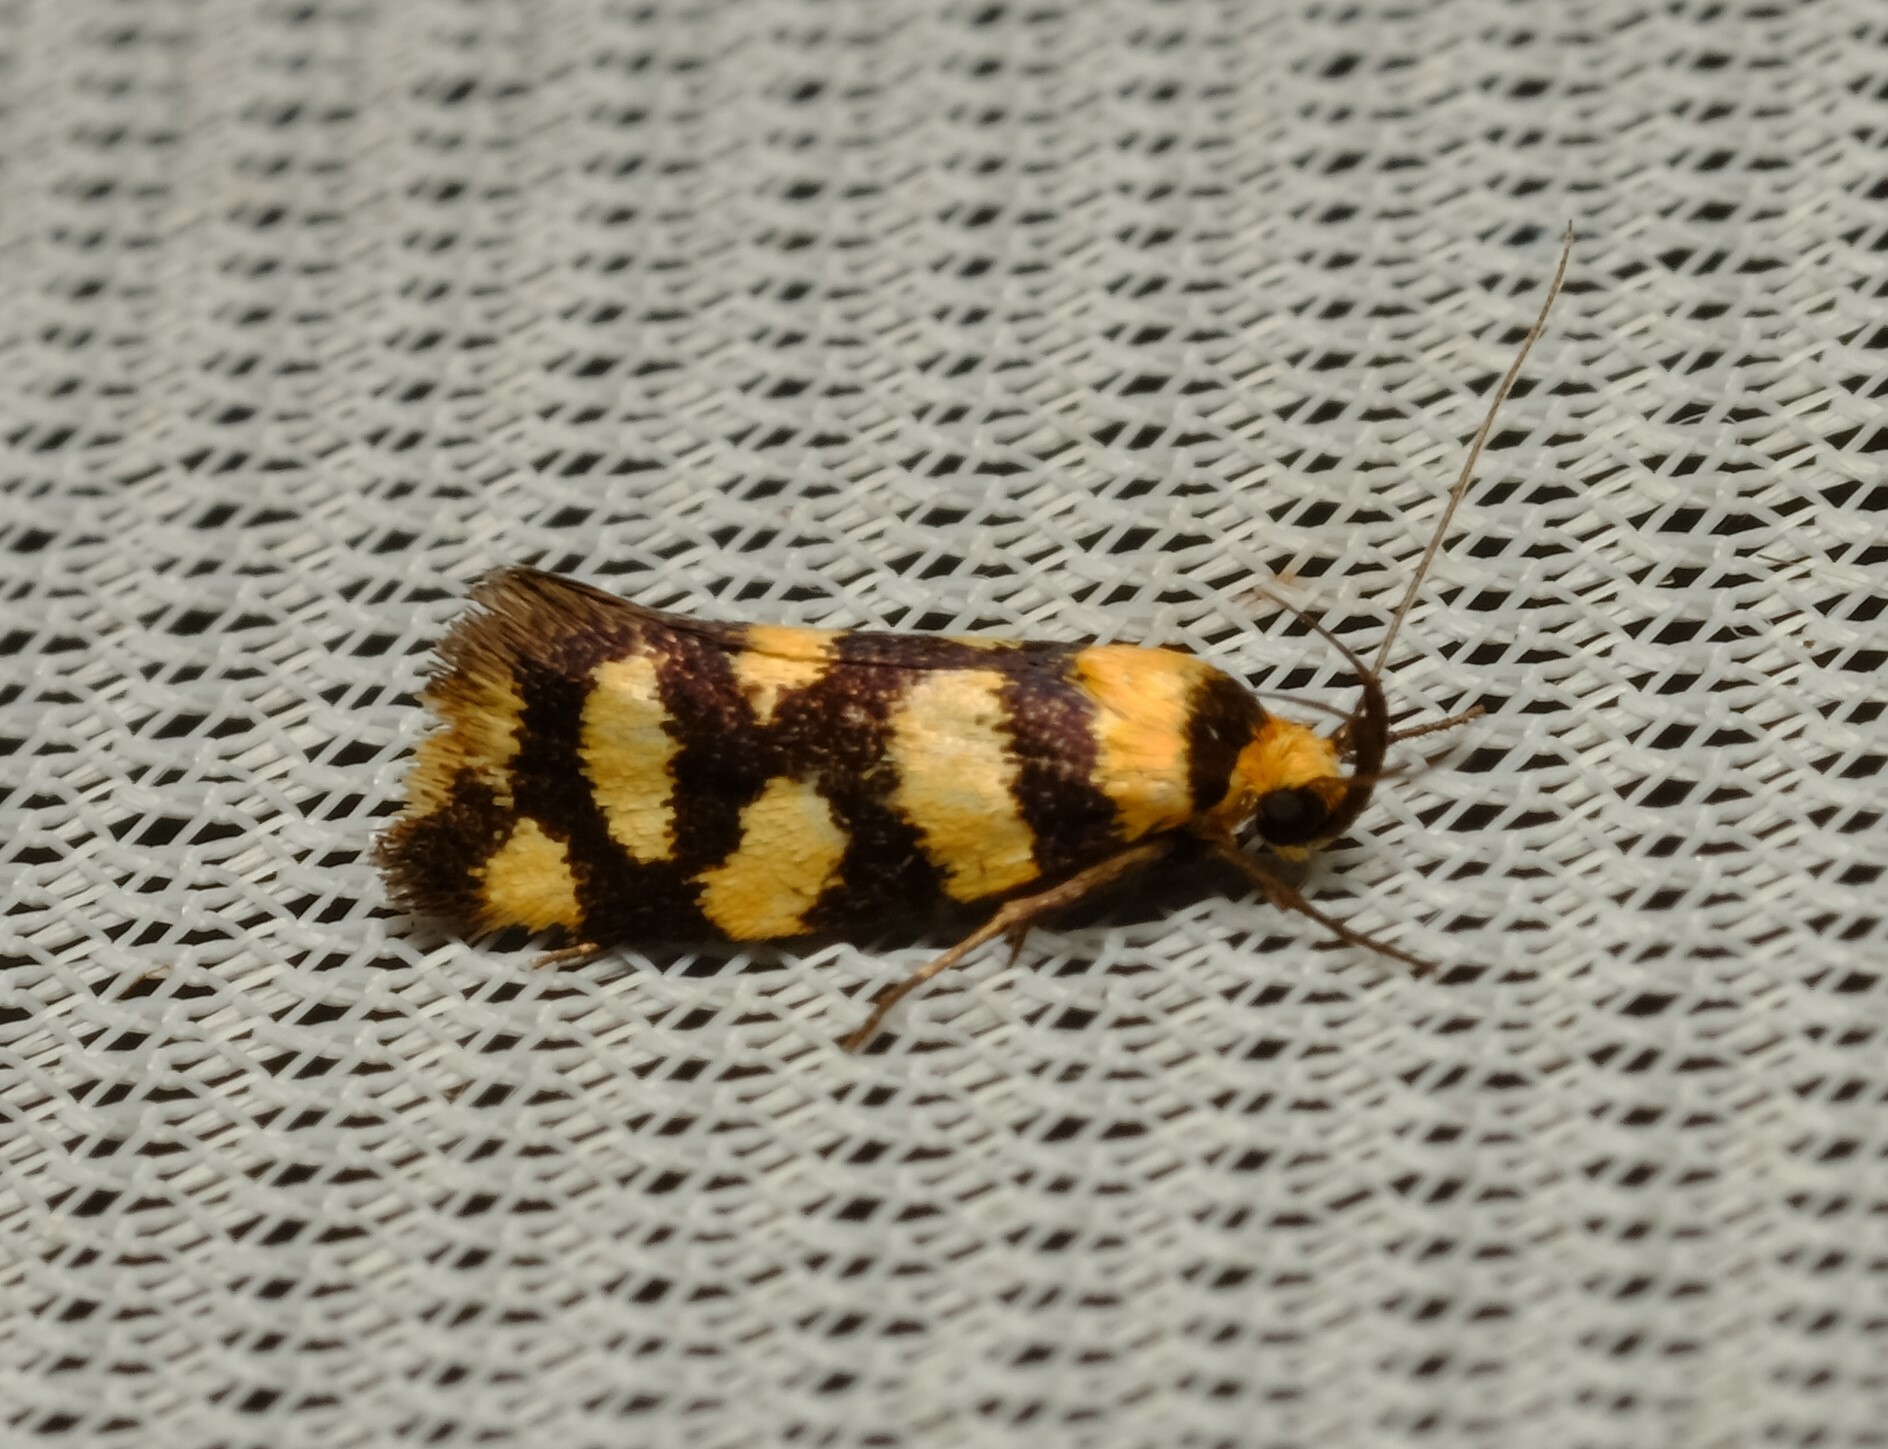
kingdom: Animalia
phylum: Arthropoda
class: Insecta
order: Lepidoptera
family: Oecophoridae
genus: Tanyzancla
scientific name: Tanyzancla argutella
